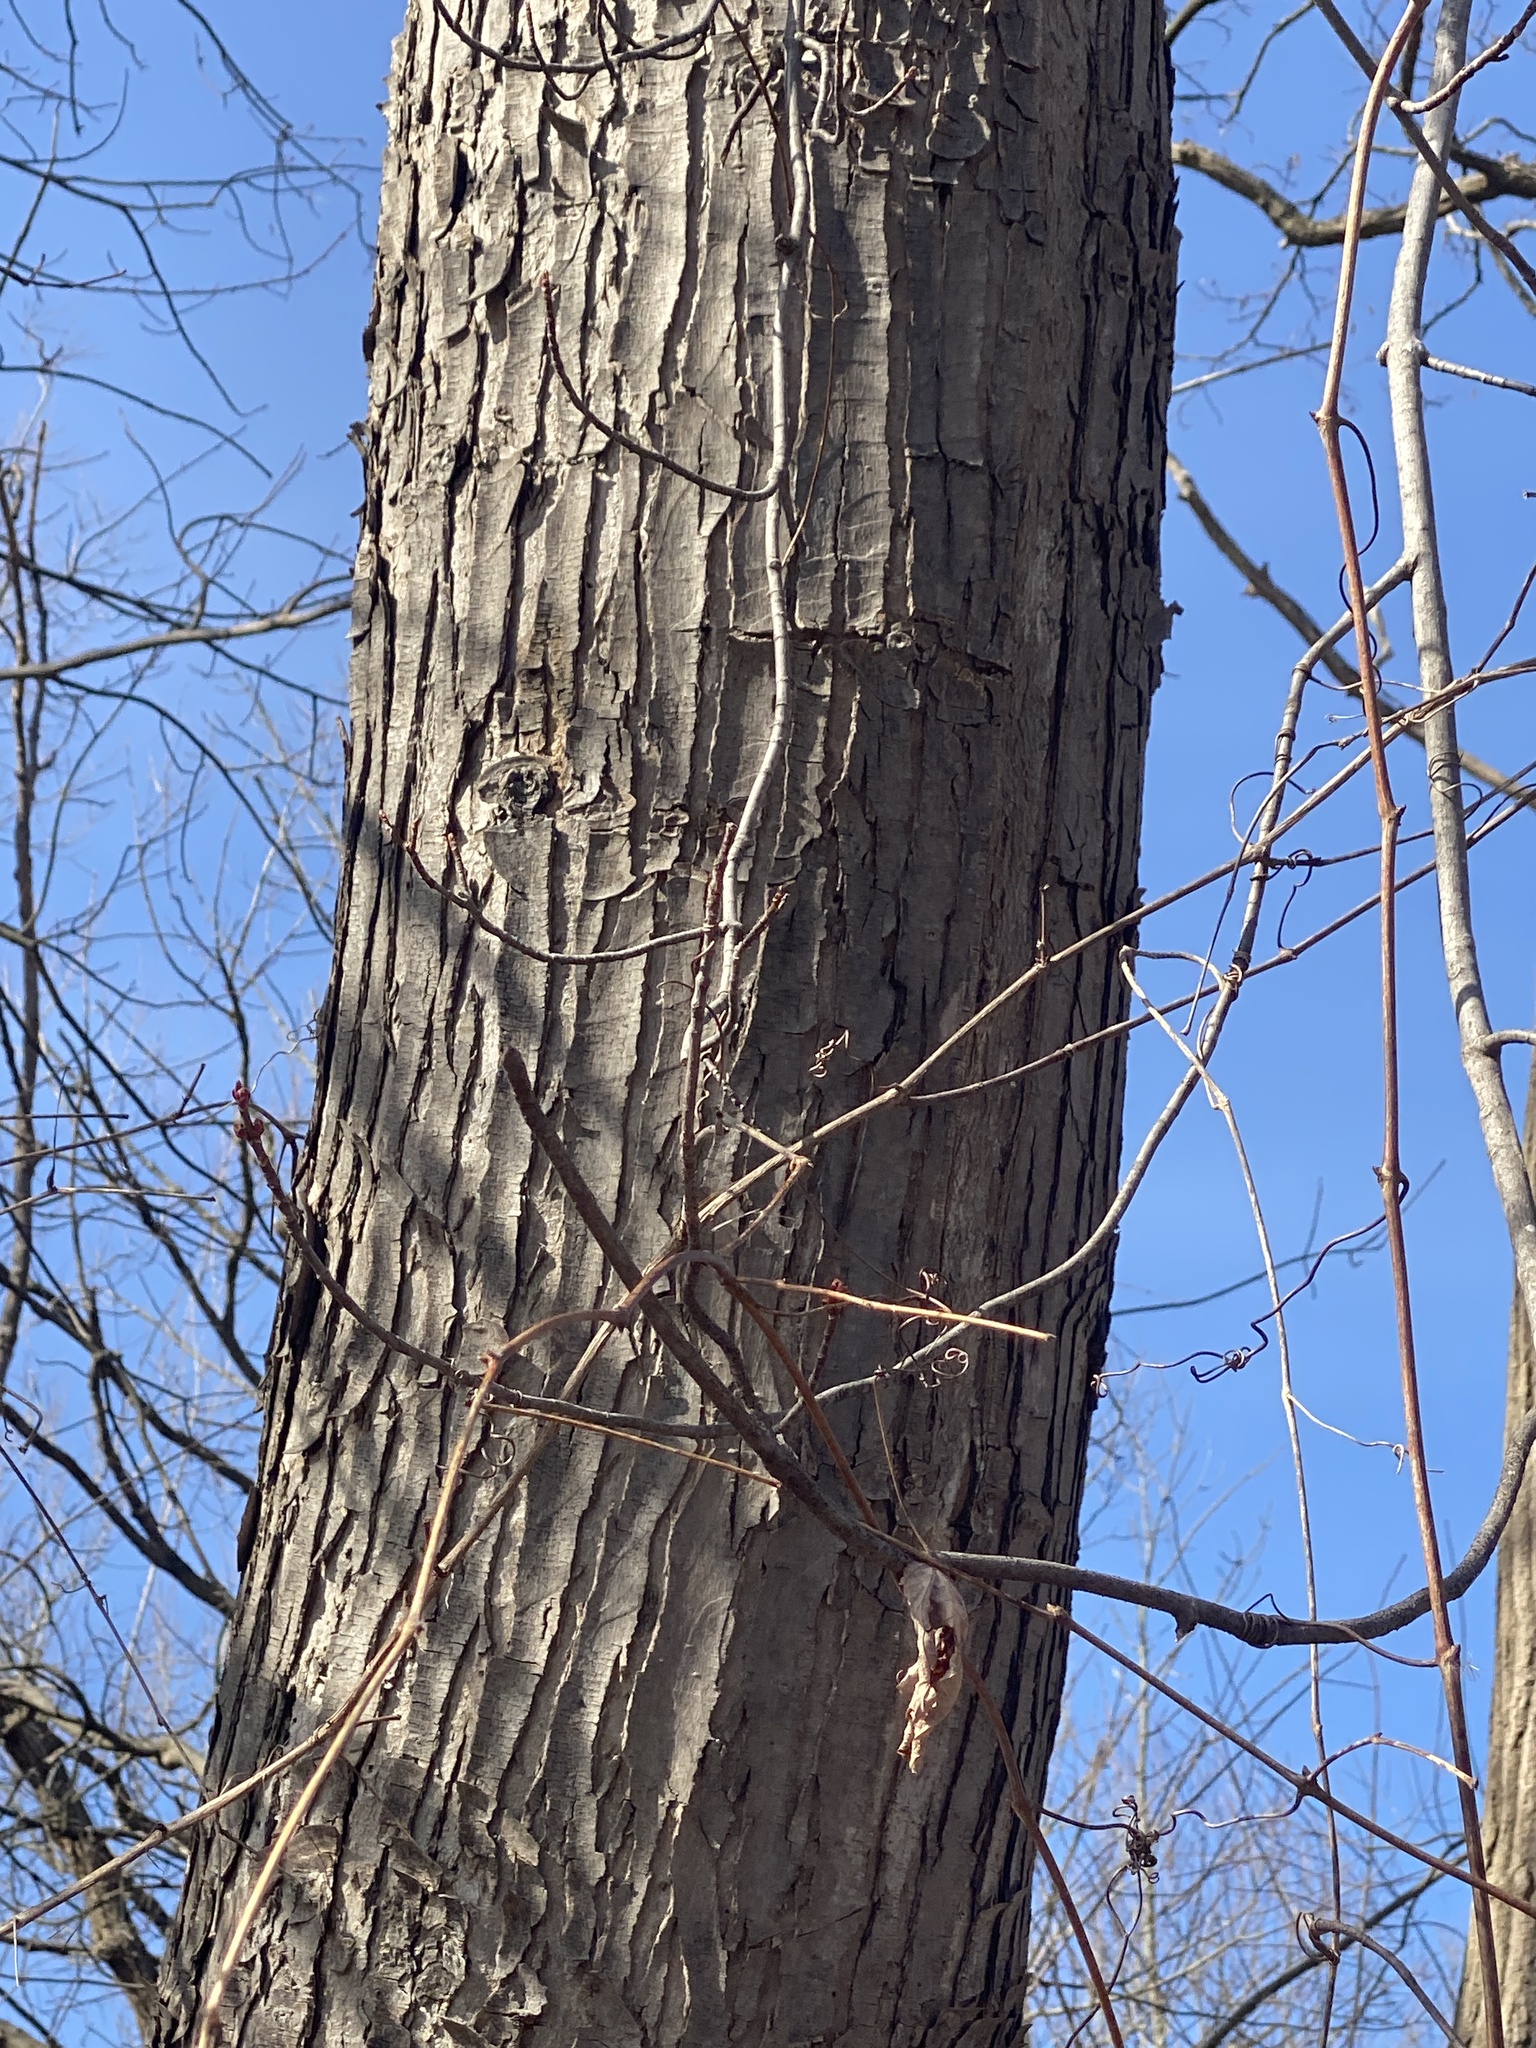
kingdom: Plantae
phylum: Tracheophyta
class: Magnoliopsida
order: Sapindales
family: Sapindaceae
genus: Acer
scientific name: Acer saccharinum
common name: Silver maple
